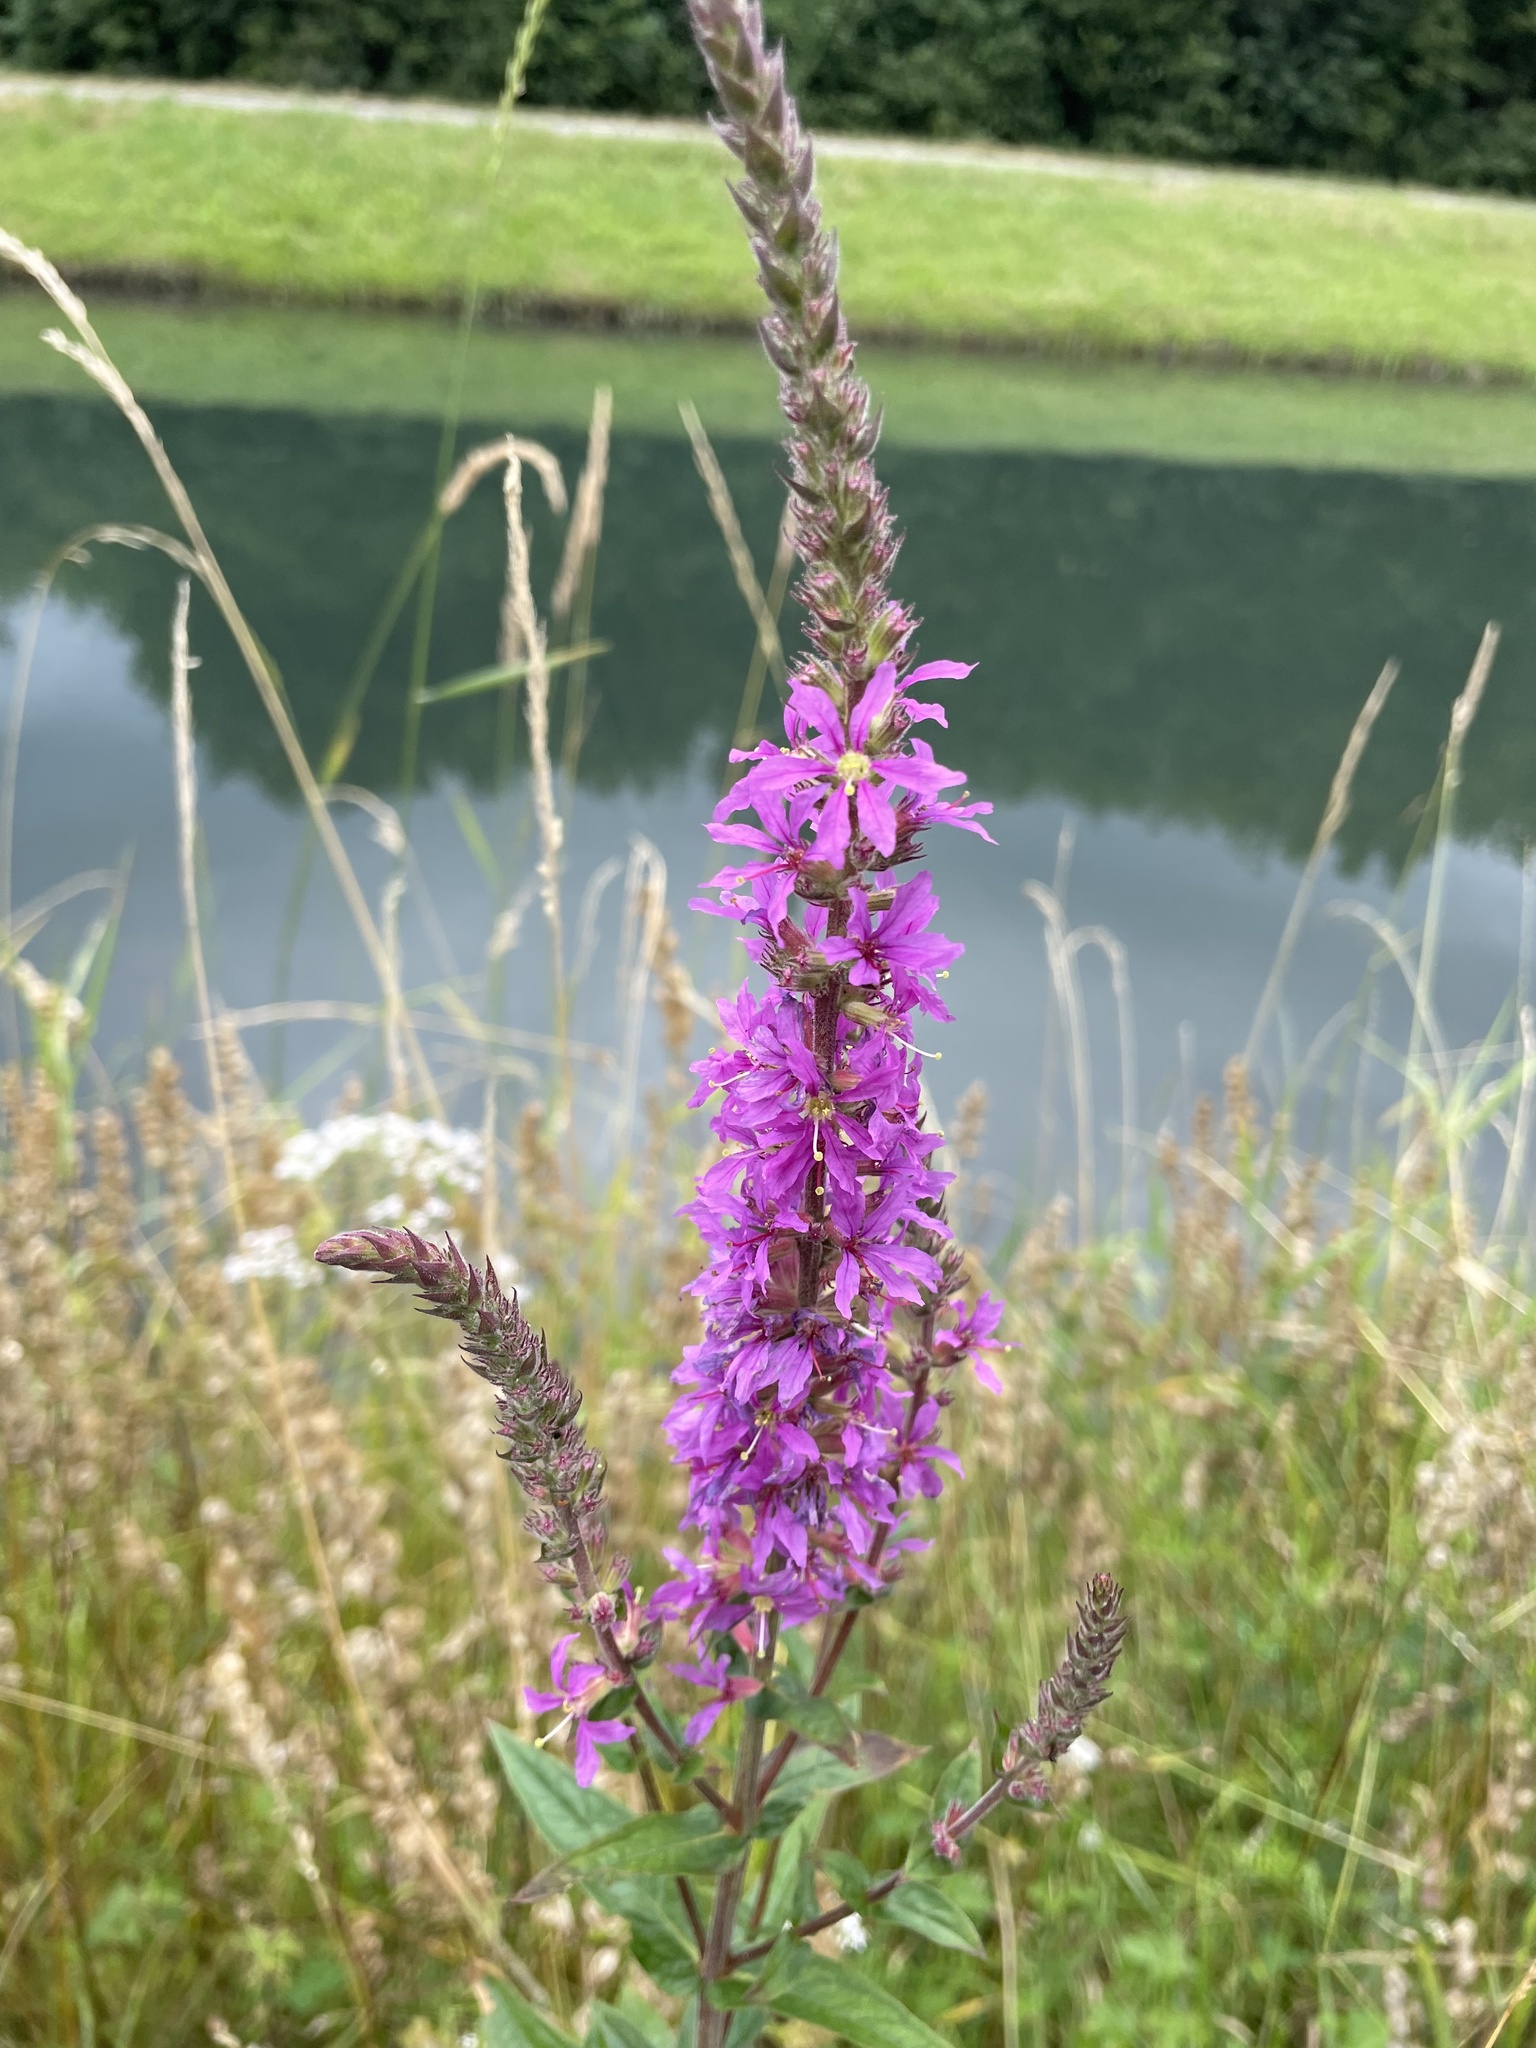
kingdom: Plantae
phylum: Tracheophyta
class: Magnoliopsida
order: Myrtales
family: Lythraceae
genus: Lythrum
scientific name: Lythrum salicaria
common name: Purple loosestrife
